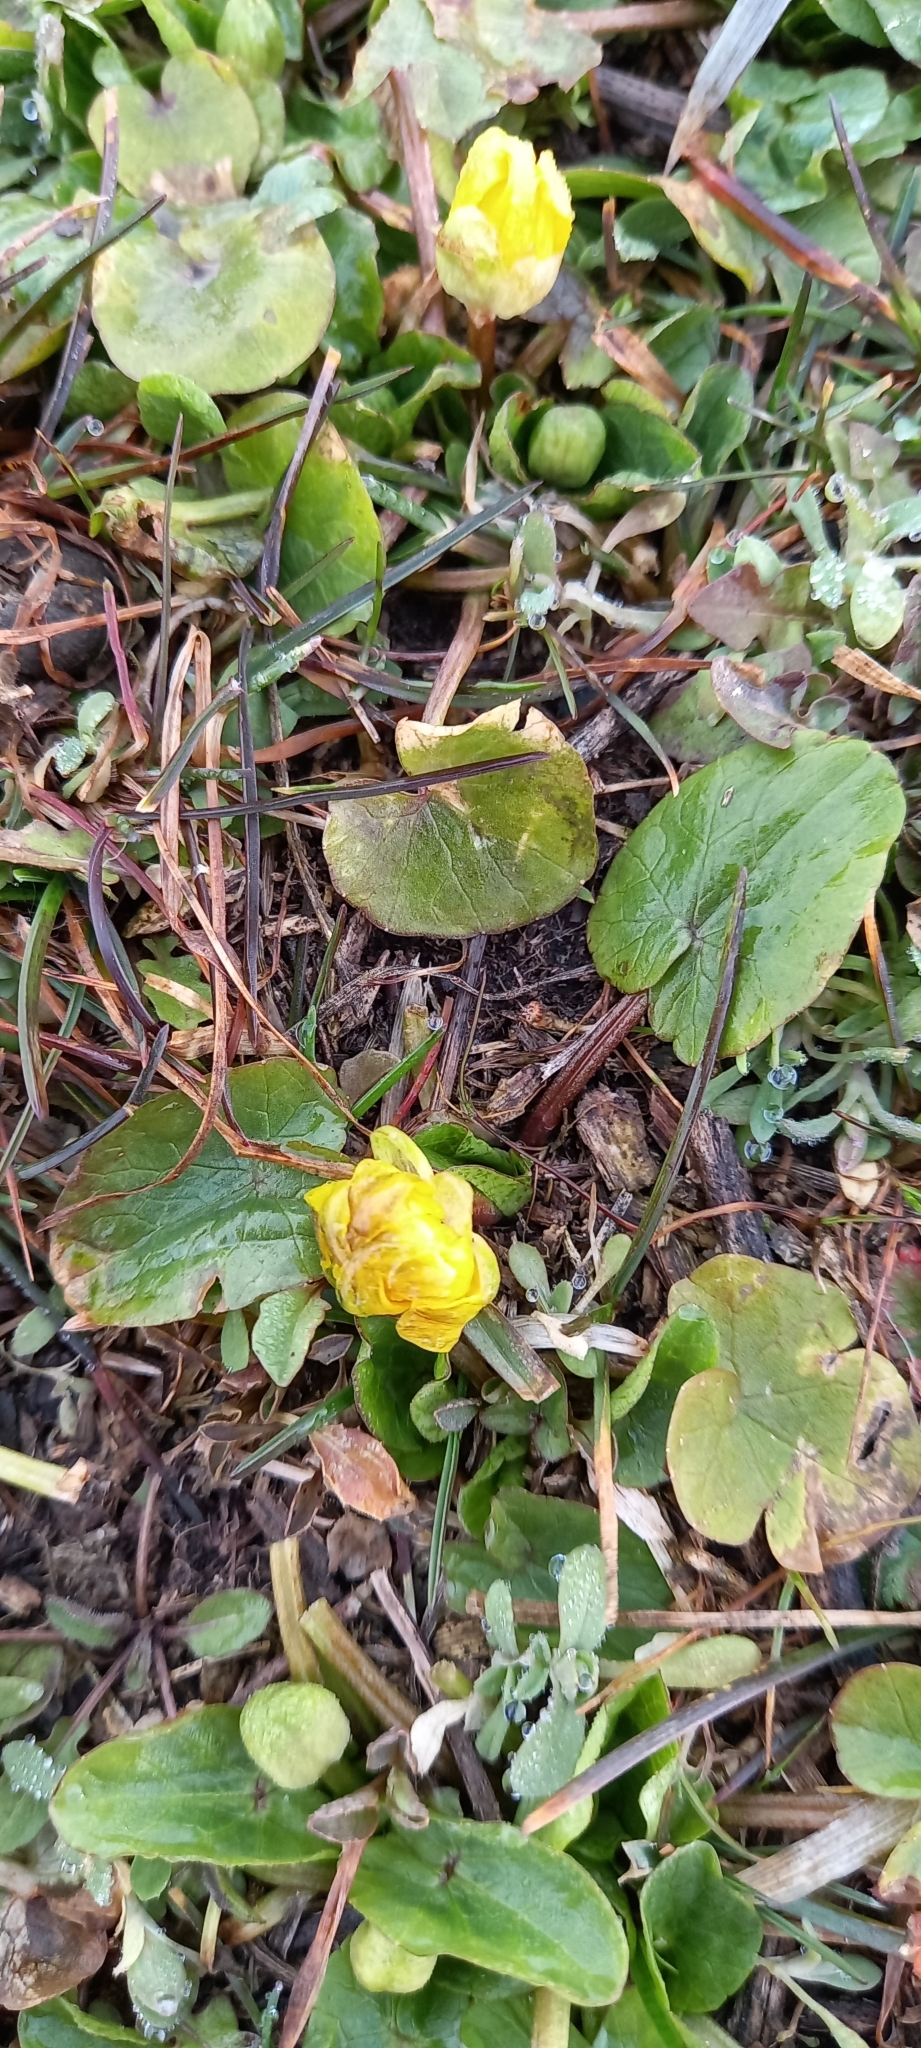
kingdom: Plantae
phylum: Tracheophyta
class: Magnoliopsida
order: Ranunculales
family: Ranunculaceae
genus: Ficaria
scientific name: Ficaria verna
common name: Lesser celandine
